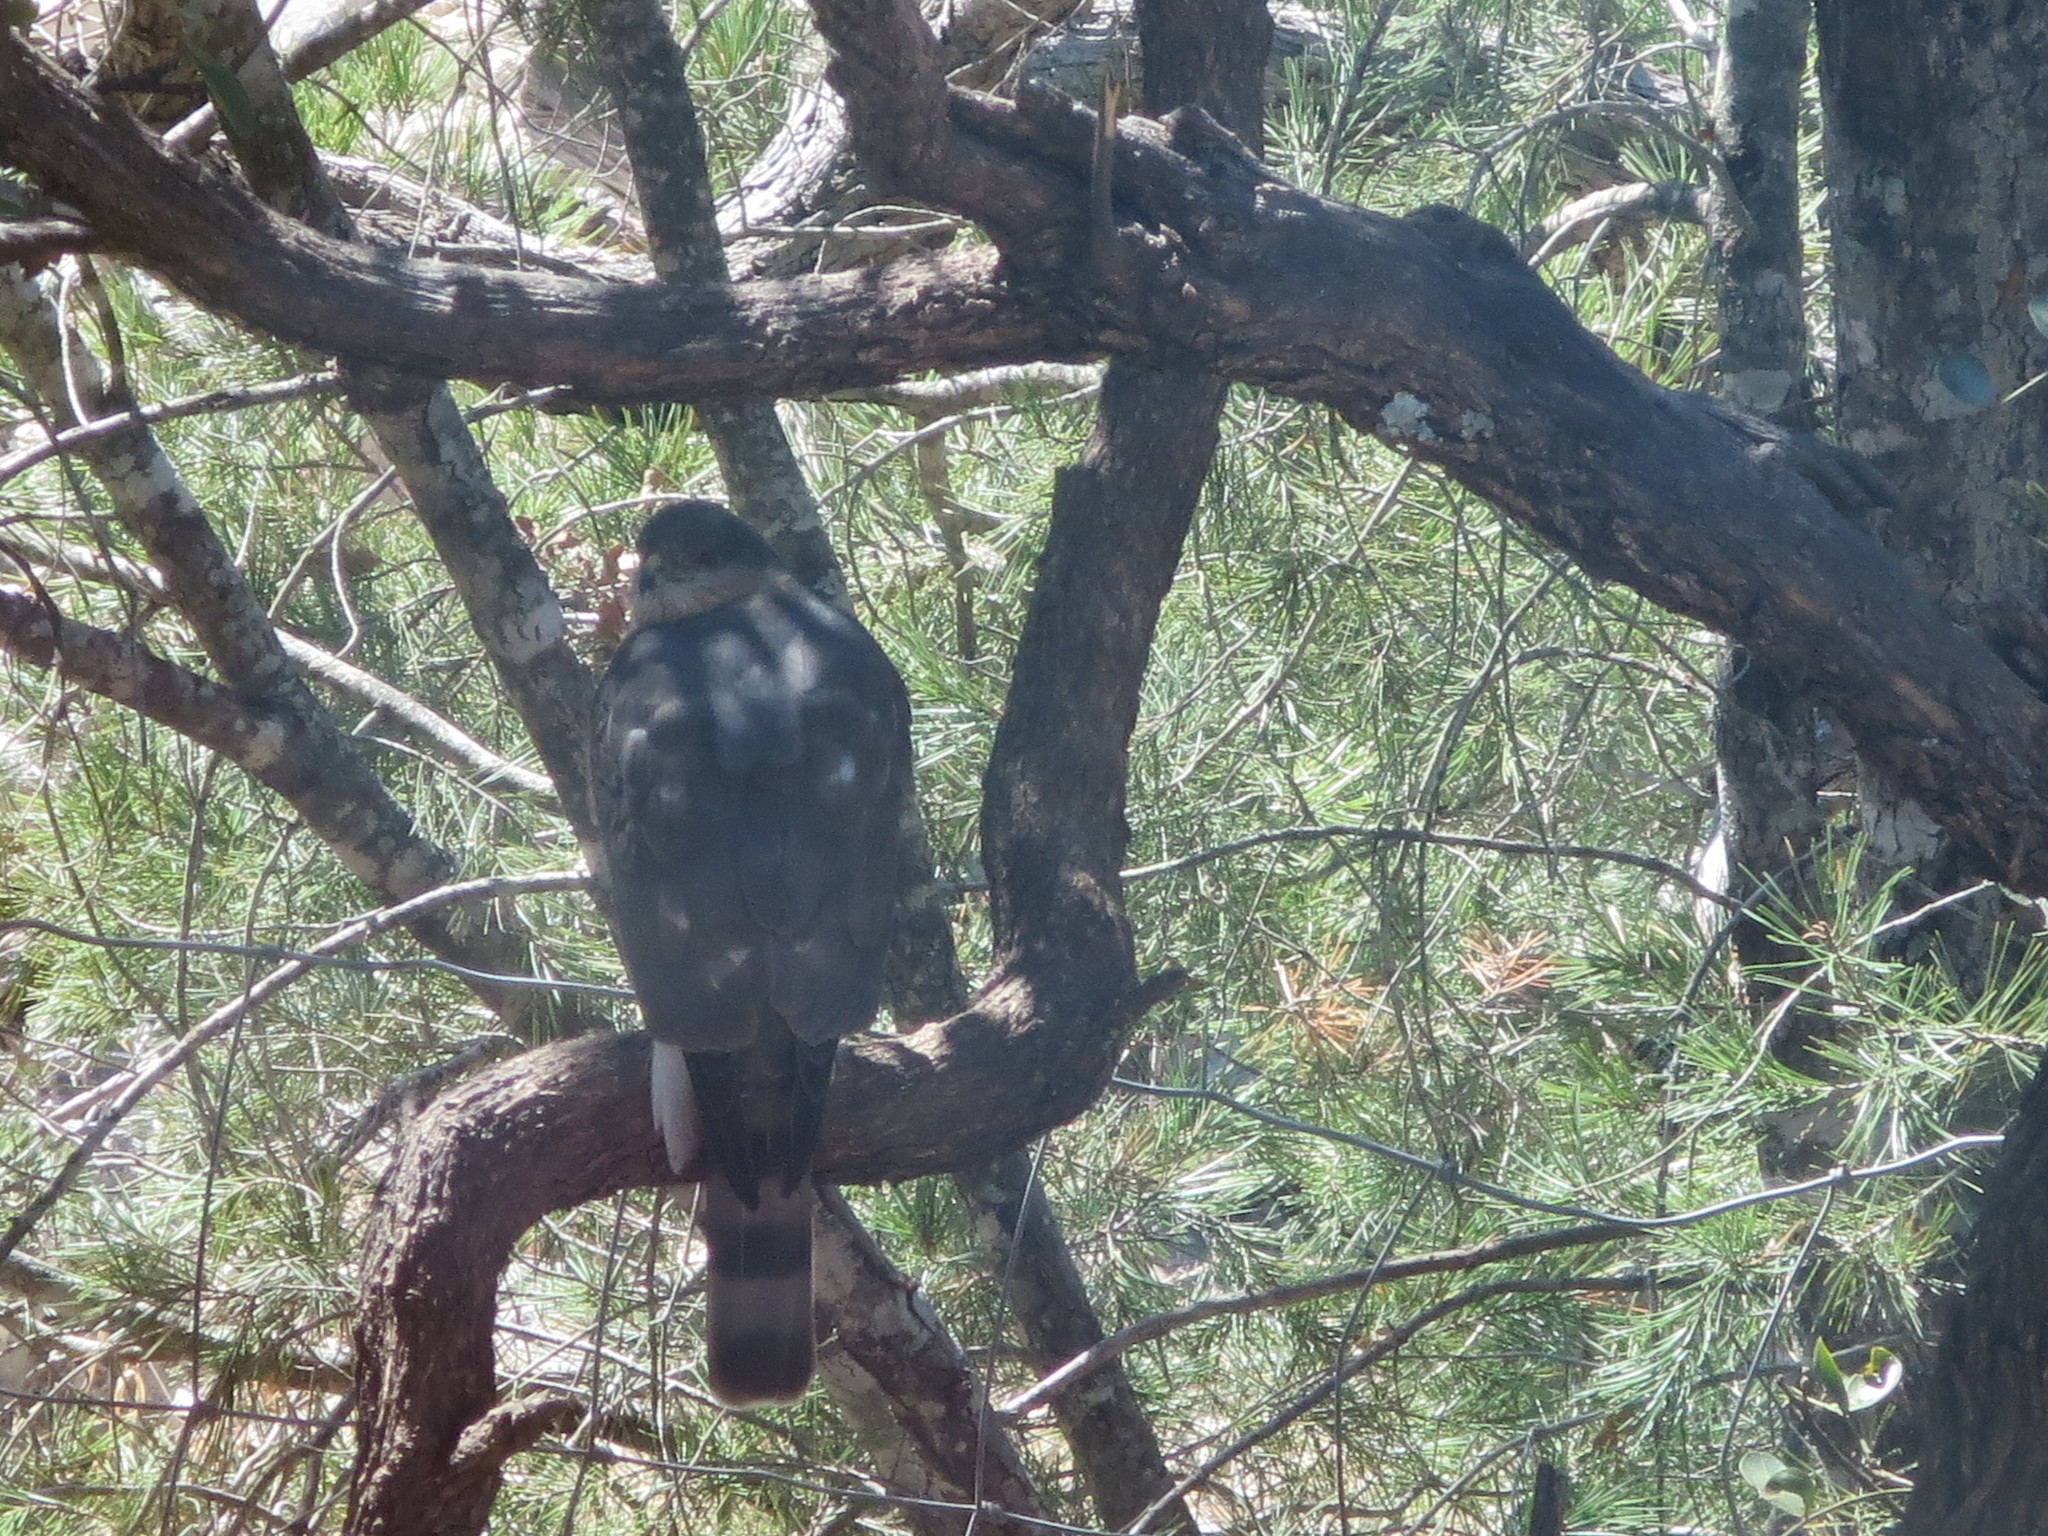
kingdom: Animalia
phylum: Chordata
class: Aves
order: Accipitriformes
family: Accipitridae
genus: Accipiter
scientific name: Accipiter striatus
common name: Sharp-shinned hawk
